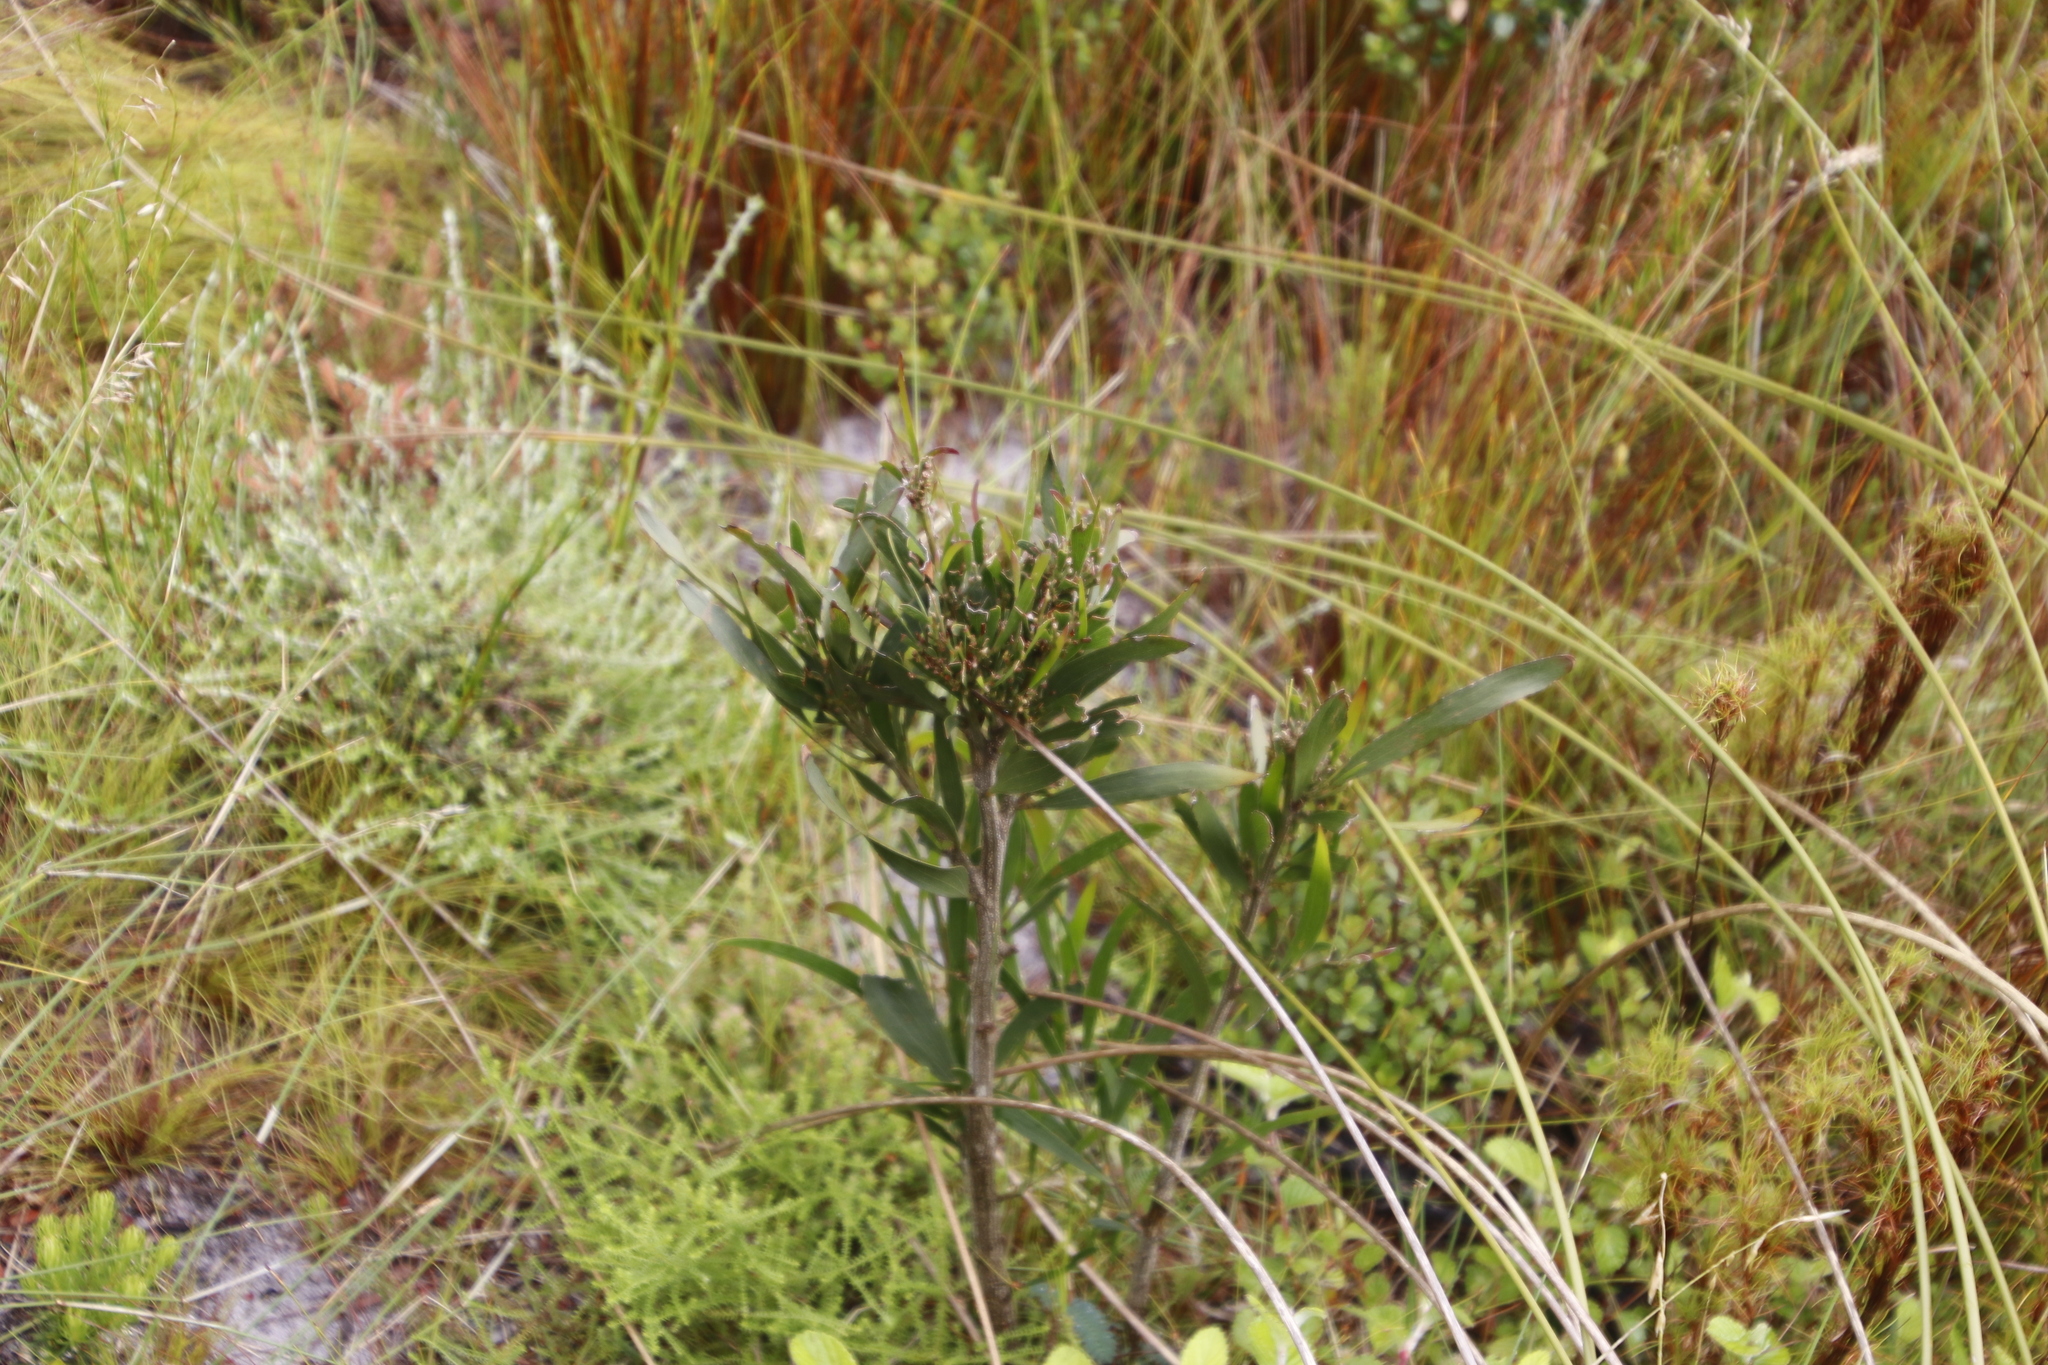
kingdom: Plantae
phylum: Tracheophyta
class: Magnoliopsida
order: Fabales
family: Fabaceae
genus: Acacia
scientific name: Acacia melanoxylon
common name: Blackwood
